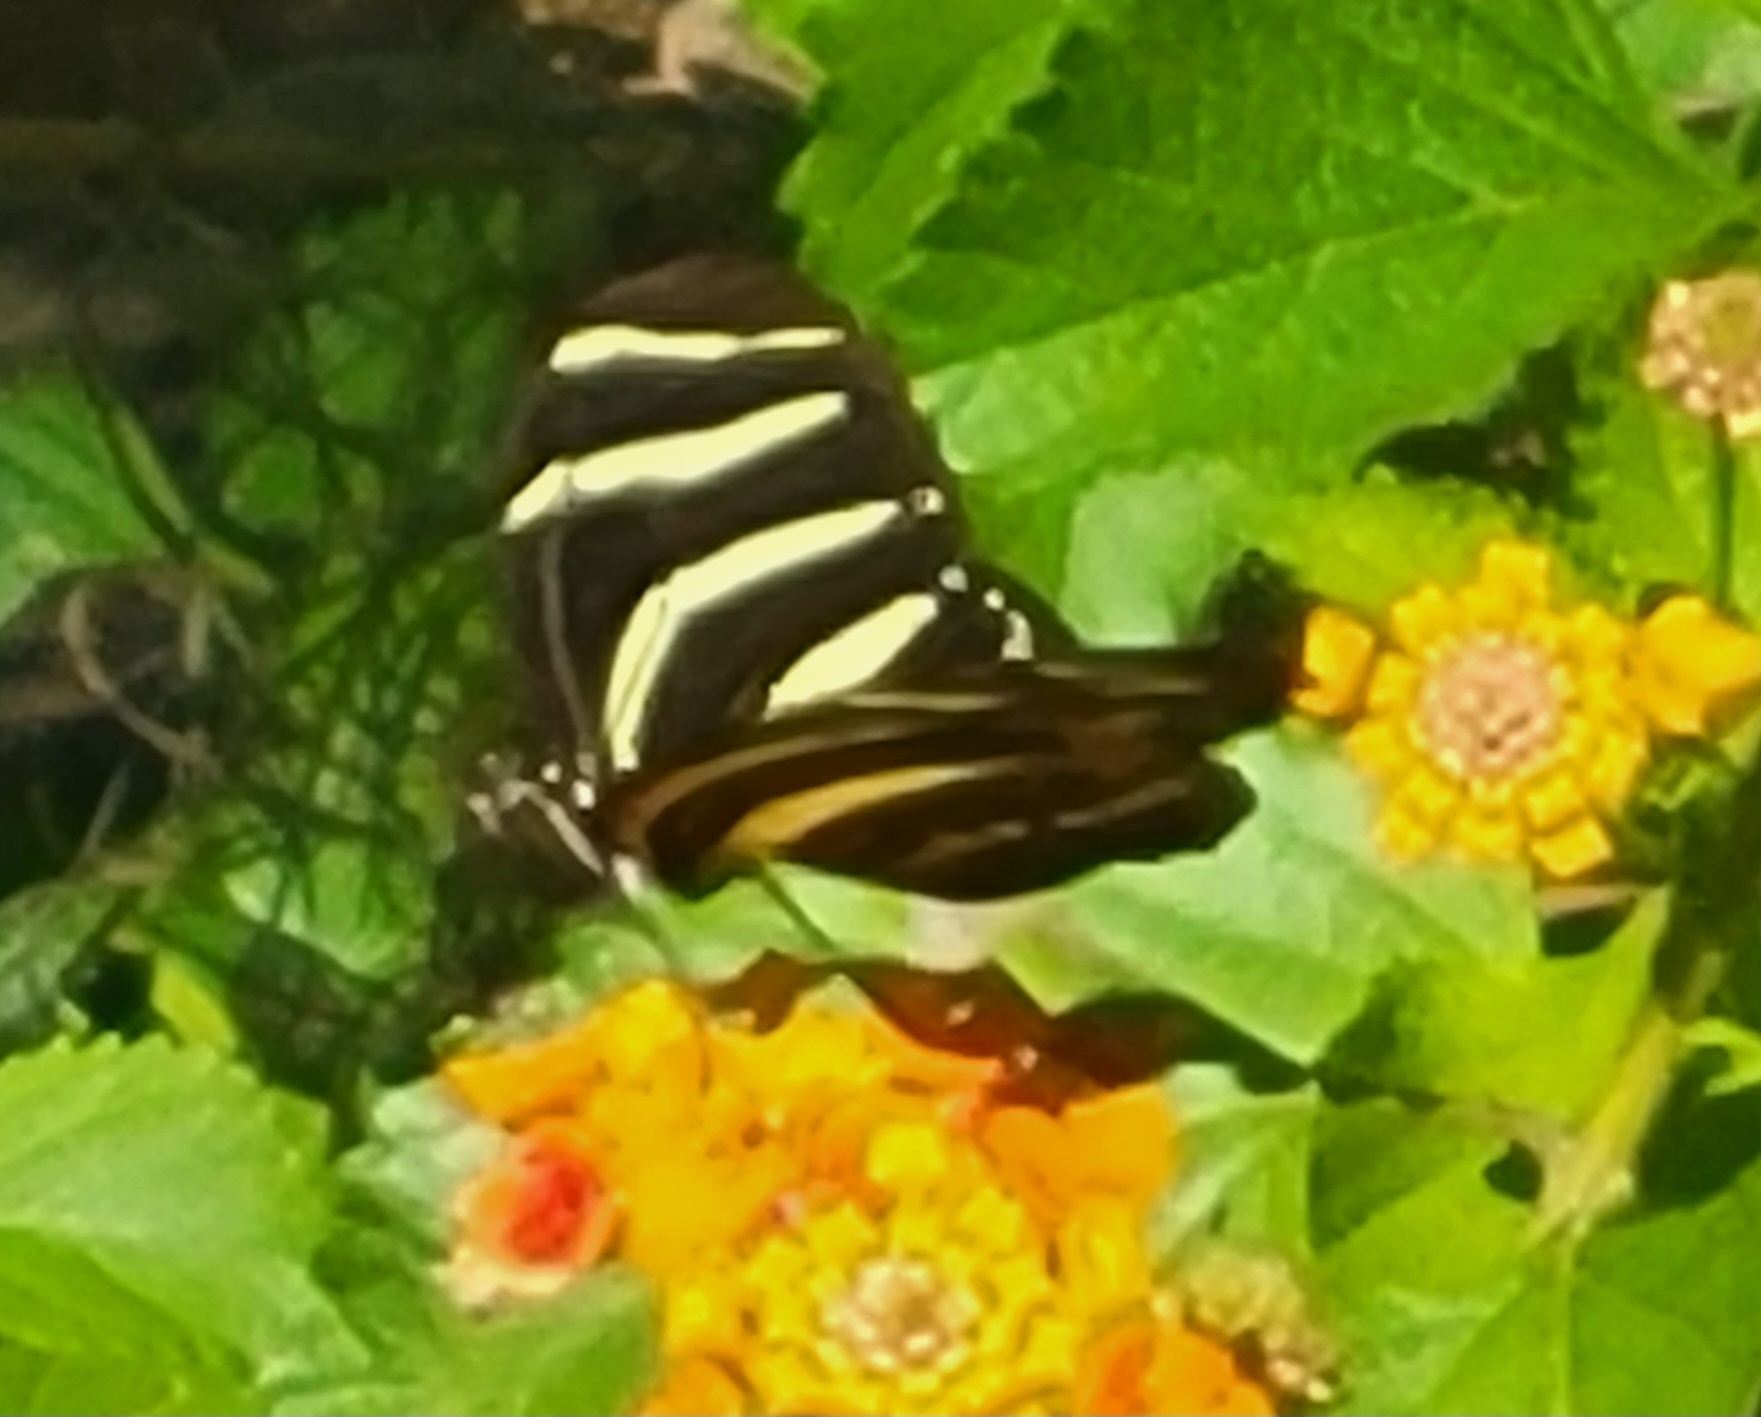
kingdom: Animalia
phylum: Arthropoda
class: Insecta
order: Lepidoptera
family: Nymphalidae
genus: Heliconius
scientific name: Heliconius charithonia
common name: Zebra long wing
